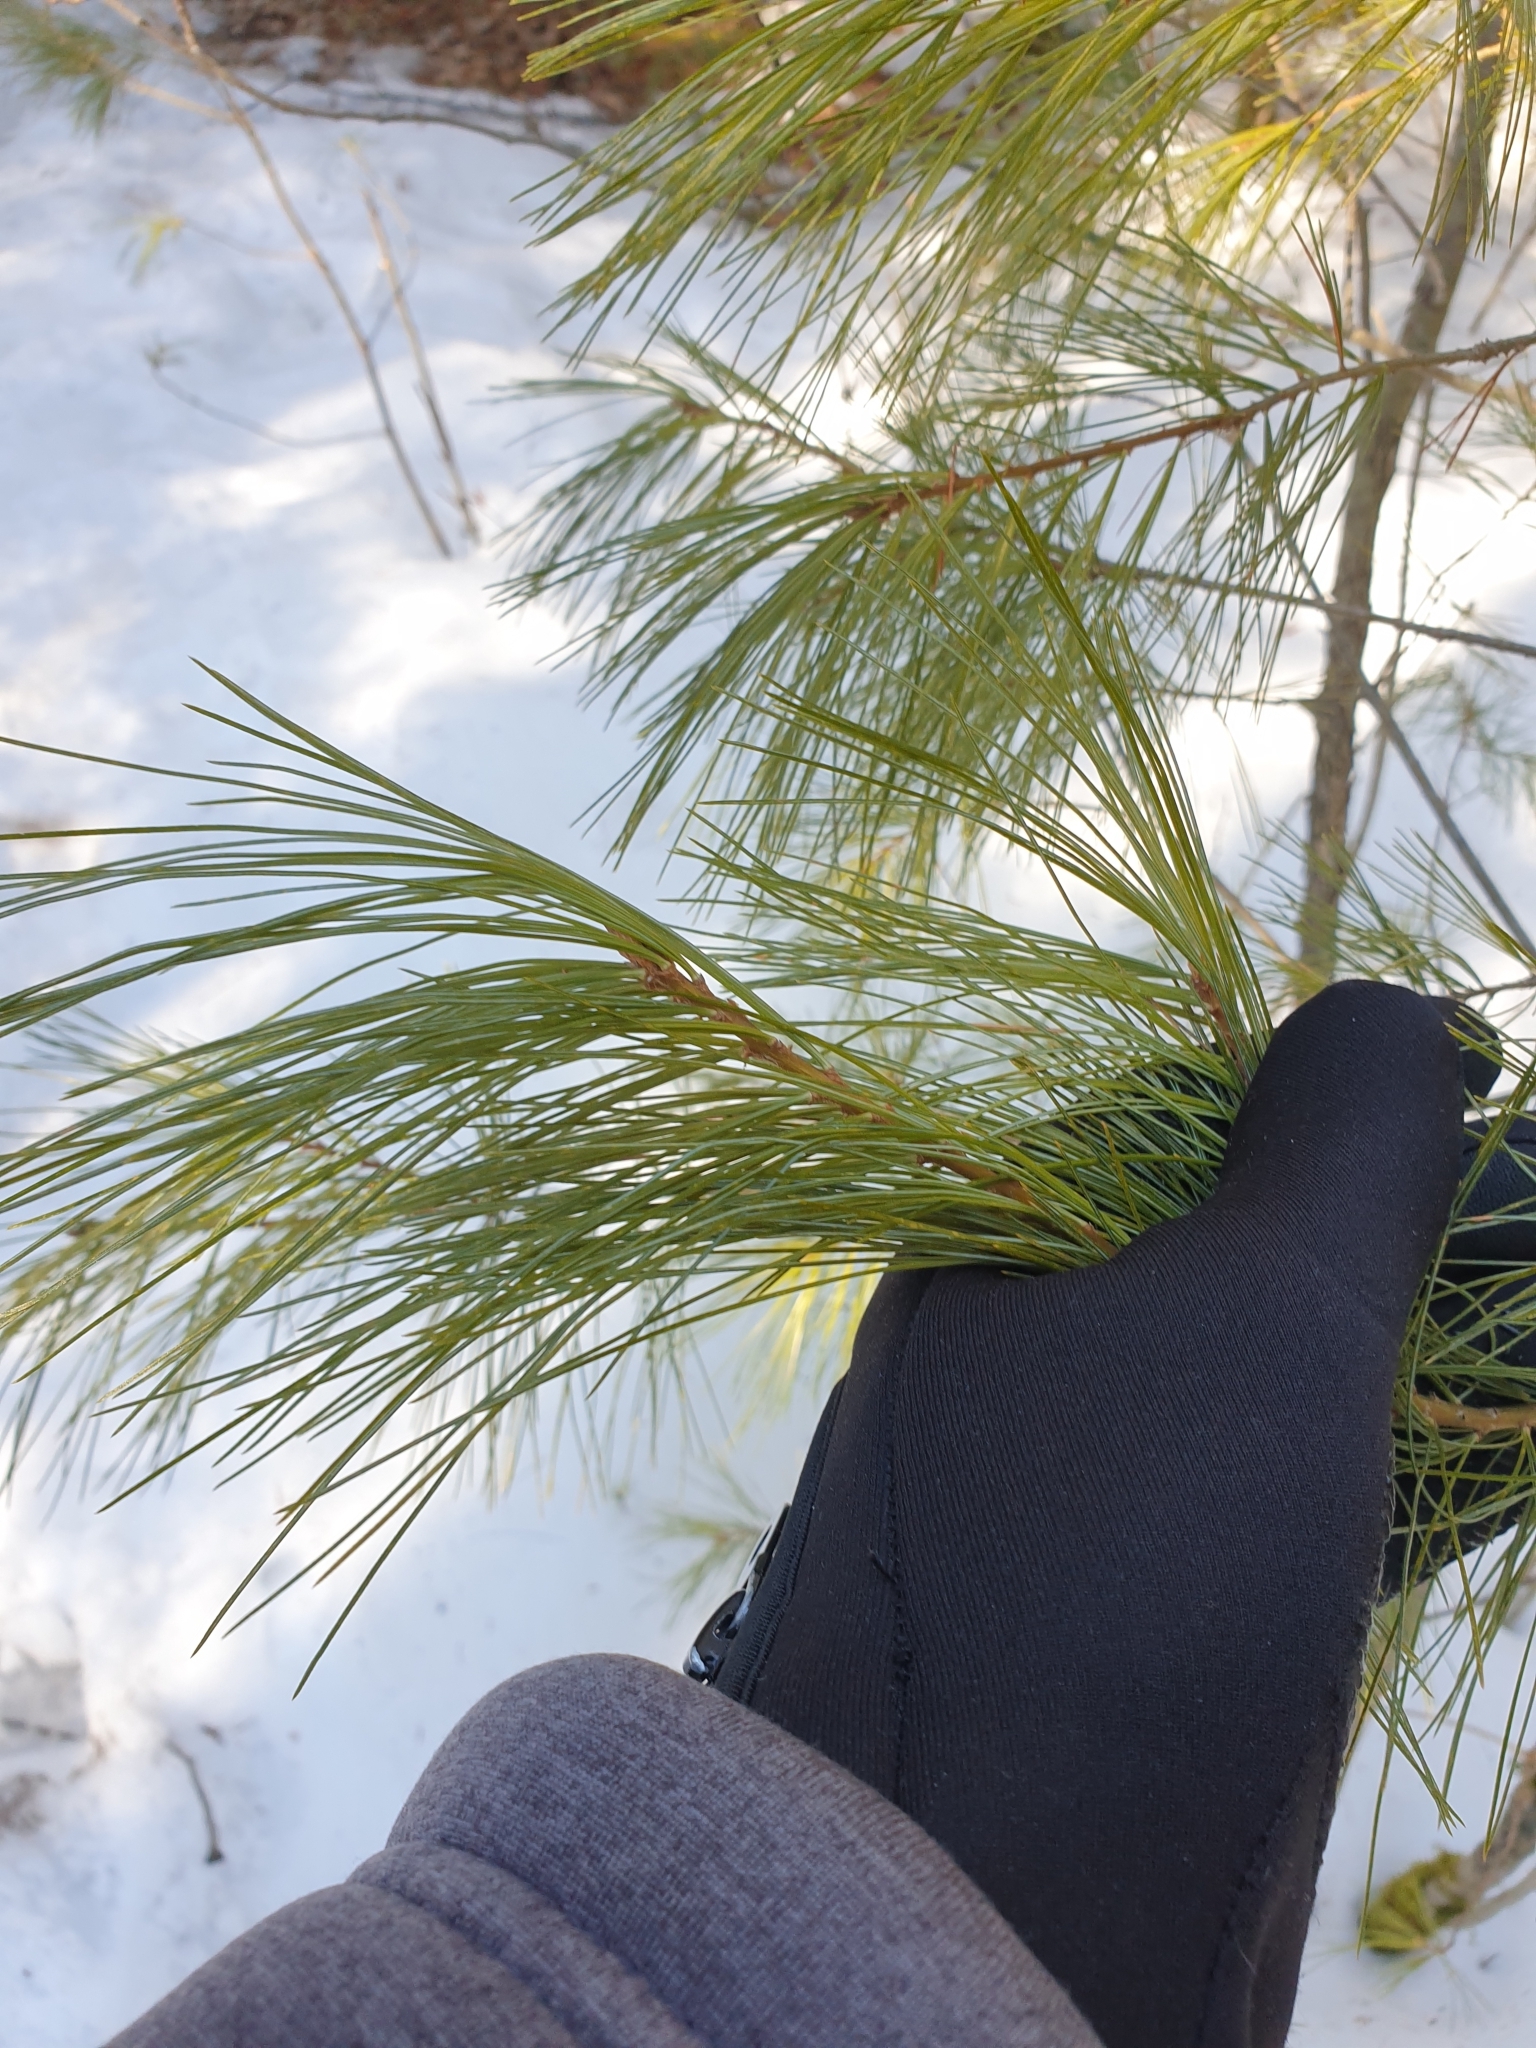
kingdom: Plantae
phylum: Tracheophyta
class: Pinopsida
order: Pinales
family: Pinaceae
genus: Pinus
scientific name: Pinus strobus
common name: Weymouth pine
